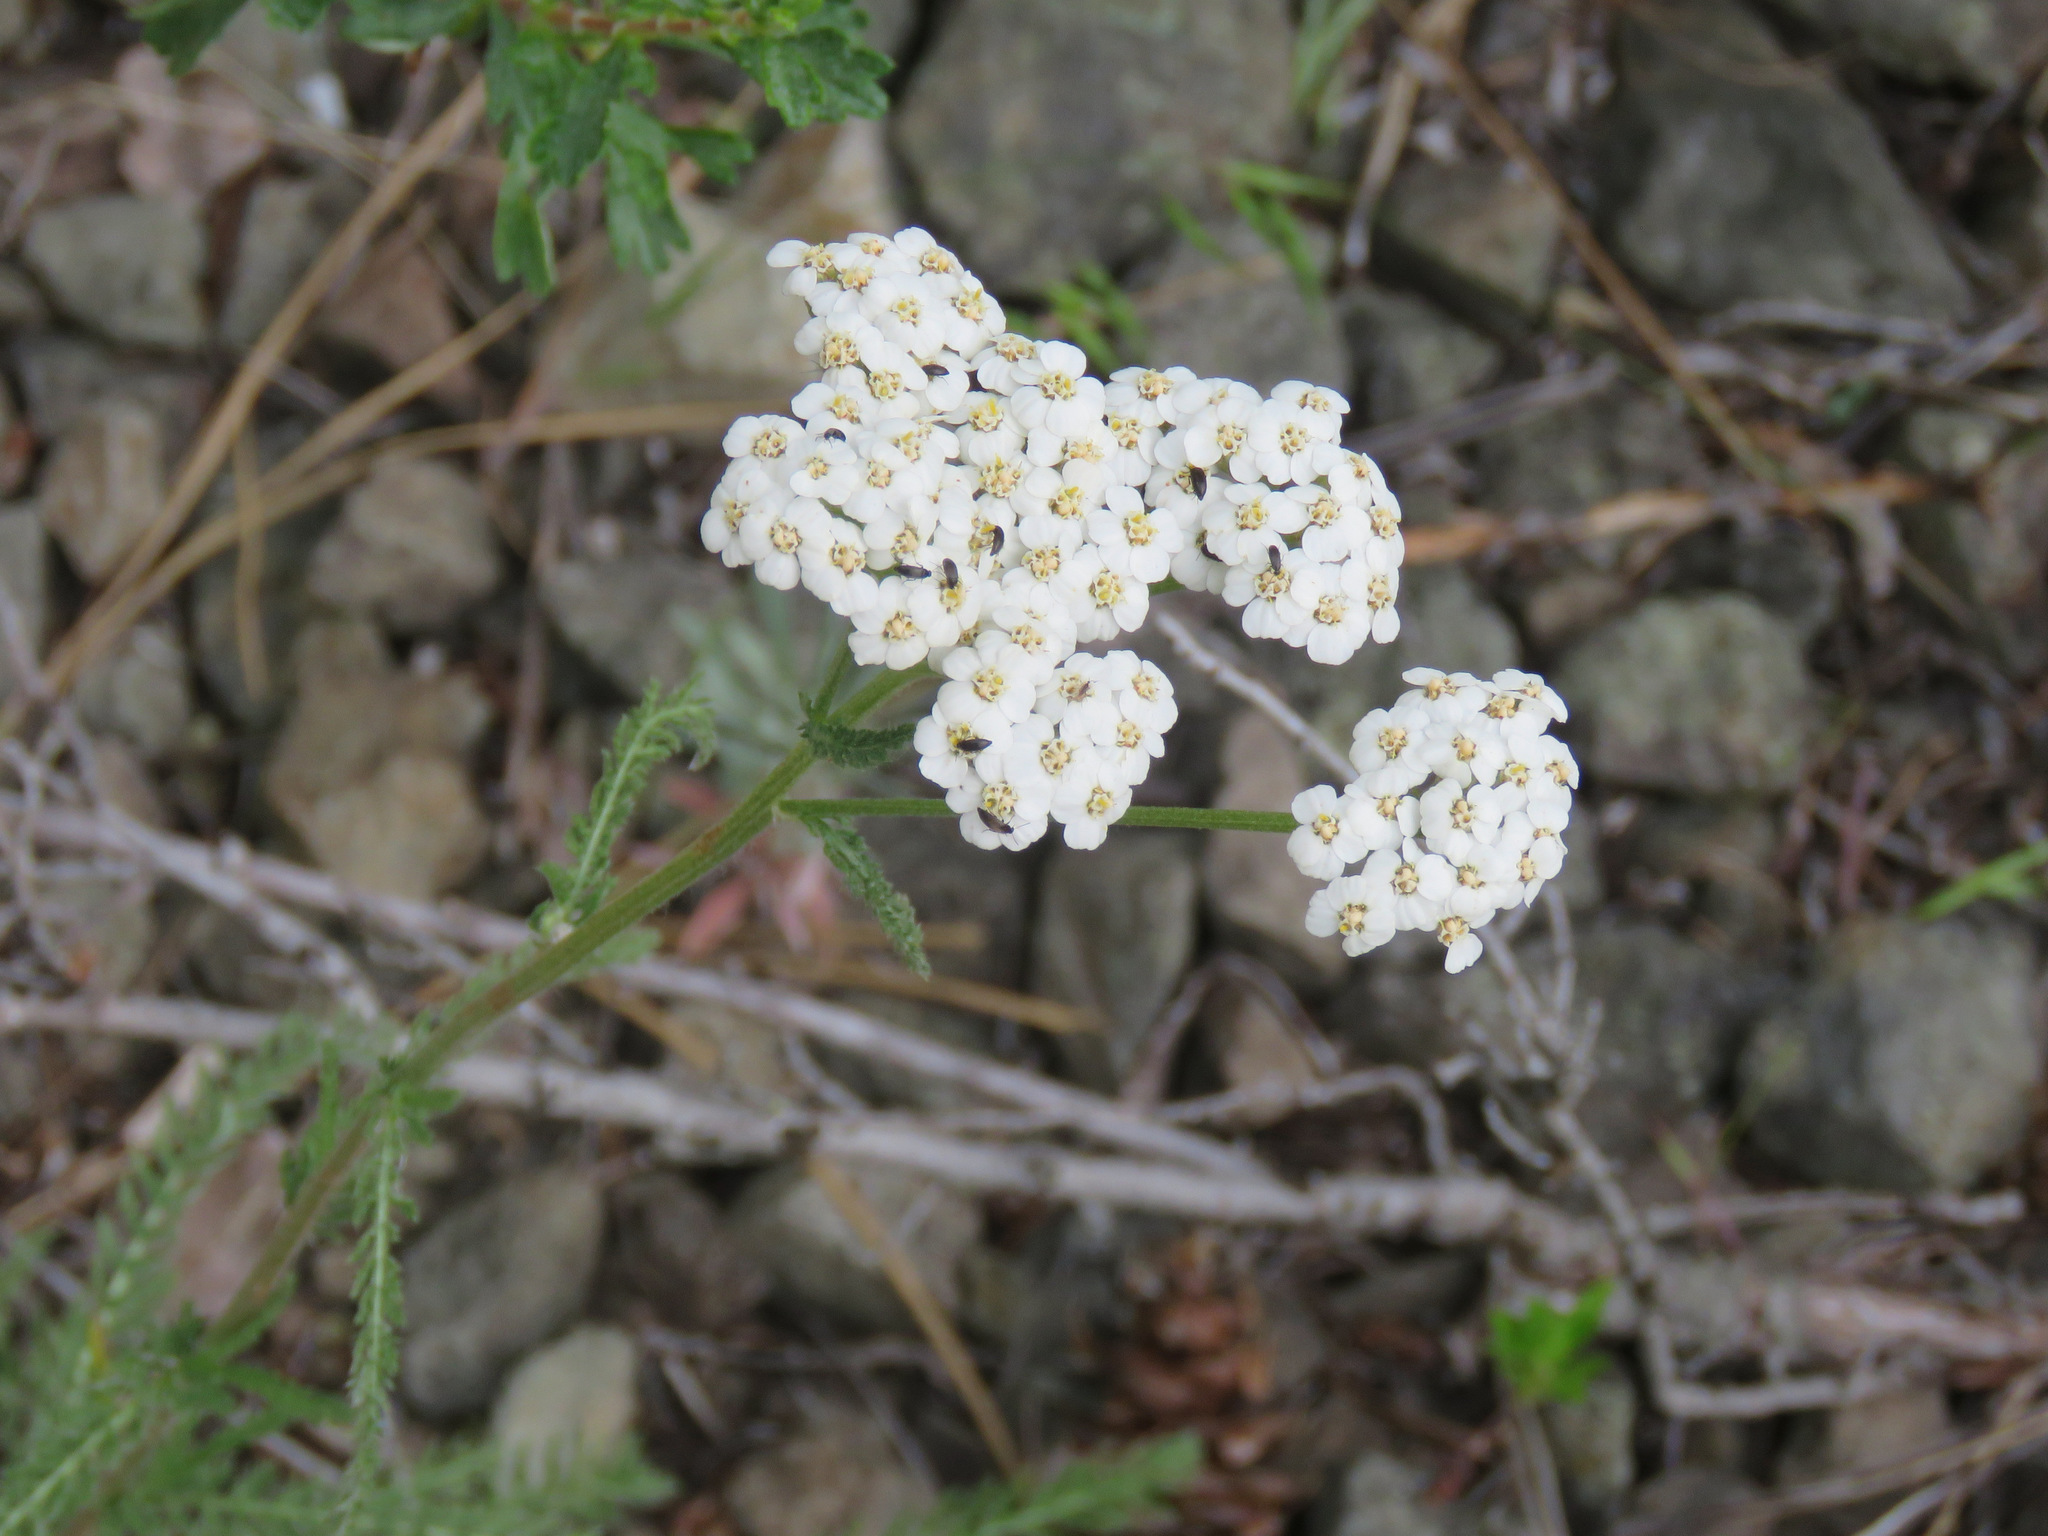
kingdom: Plantae
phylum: Tracheophyta
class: Magnoliopsida
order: Asterales
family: Asteraceae
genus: Achillea
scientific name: Achillea millefolium
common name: Yarrow
